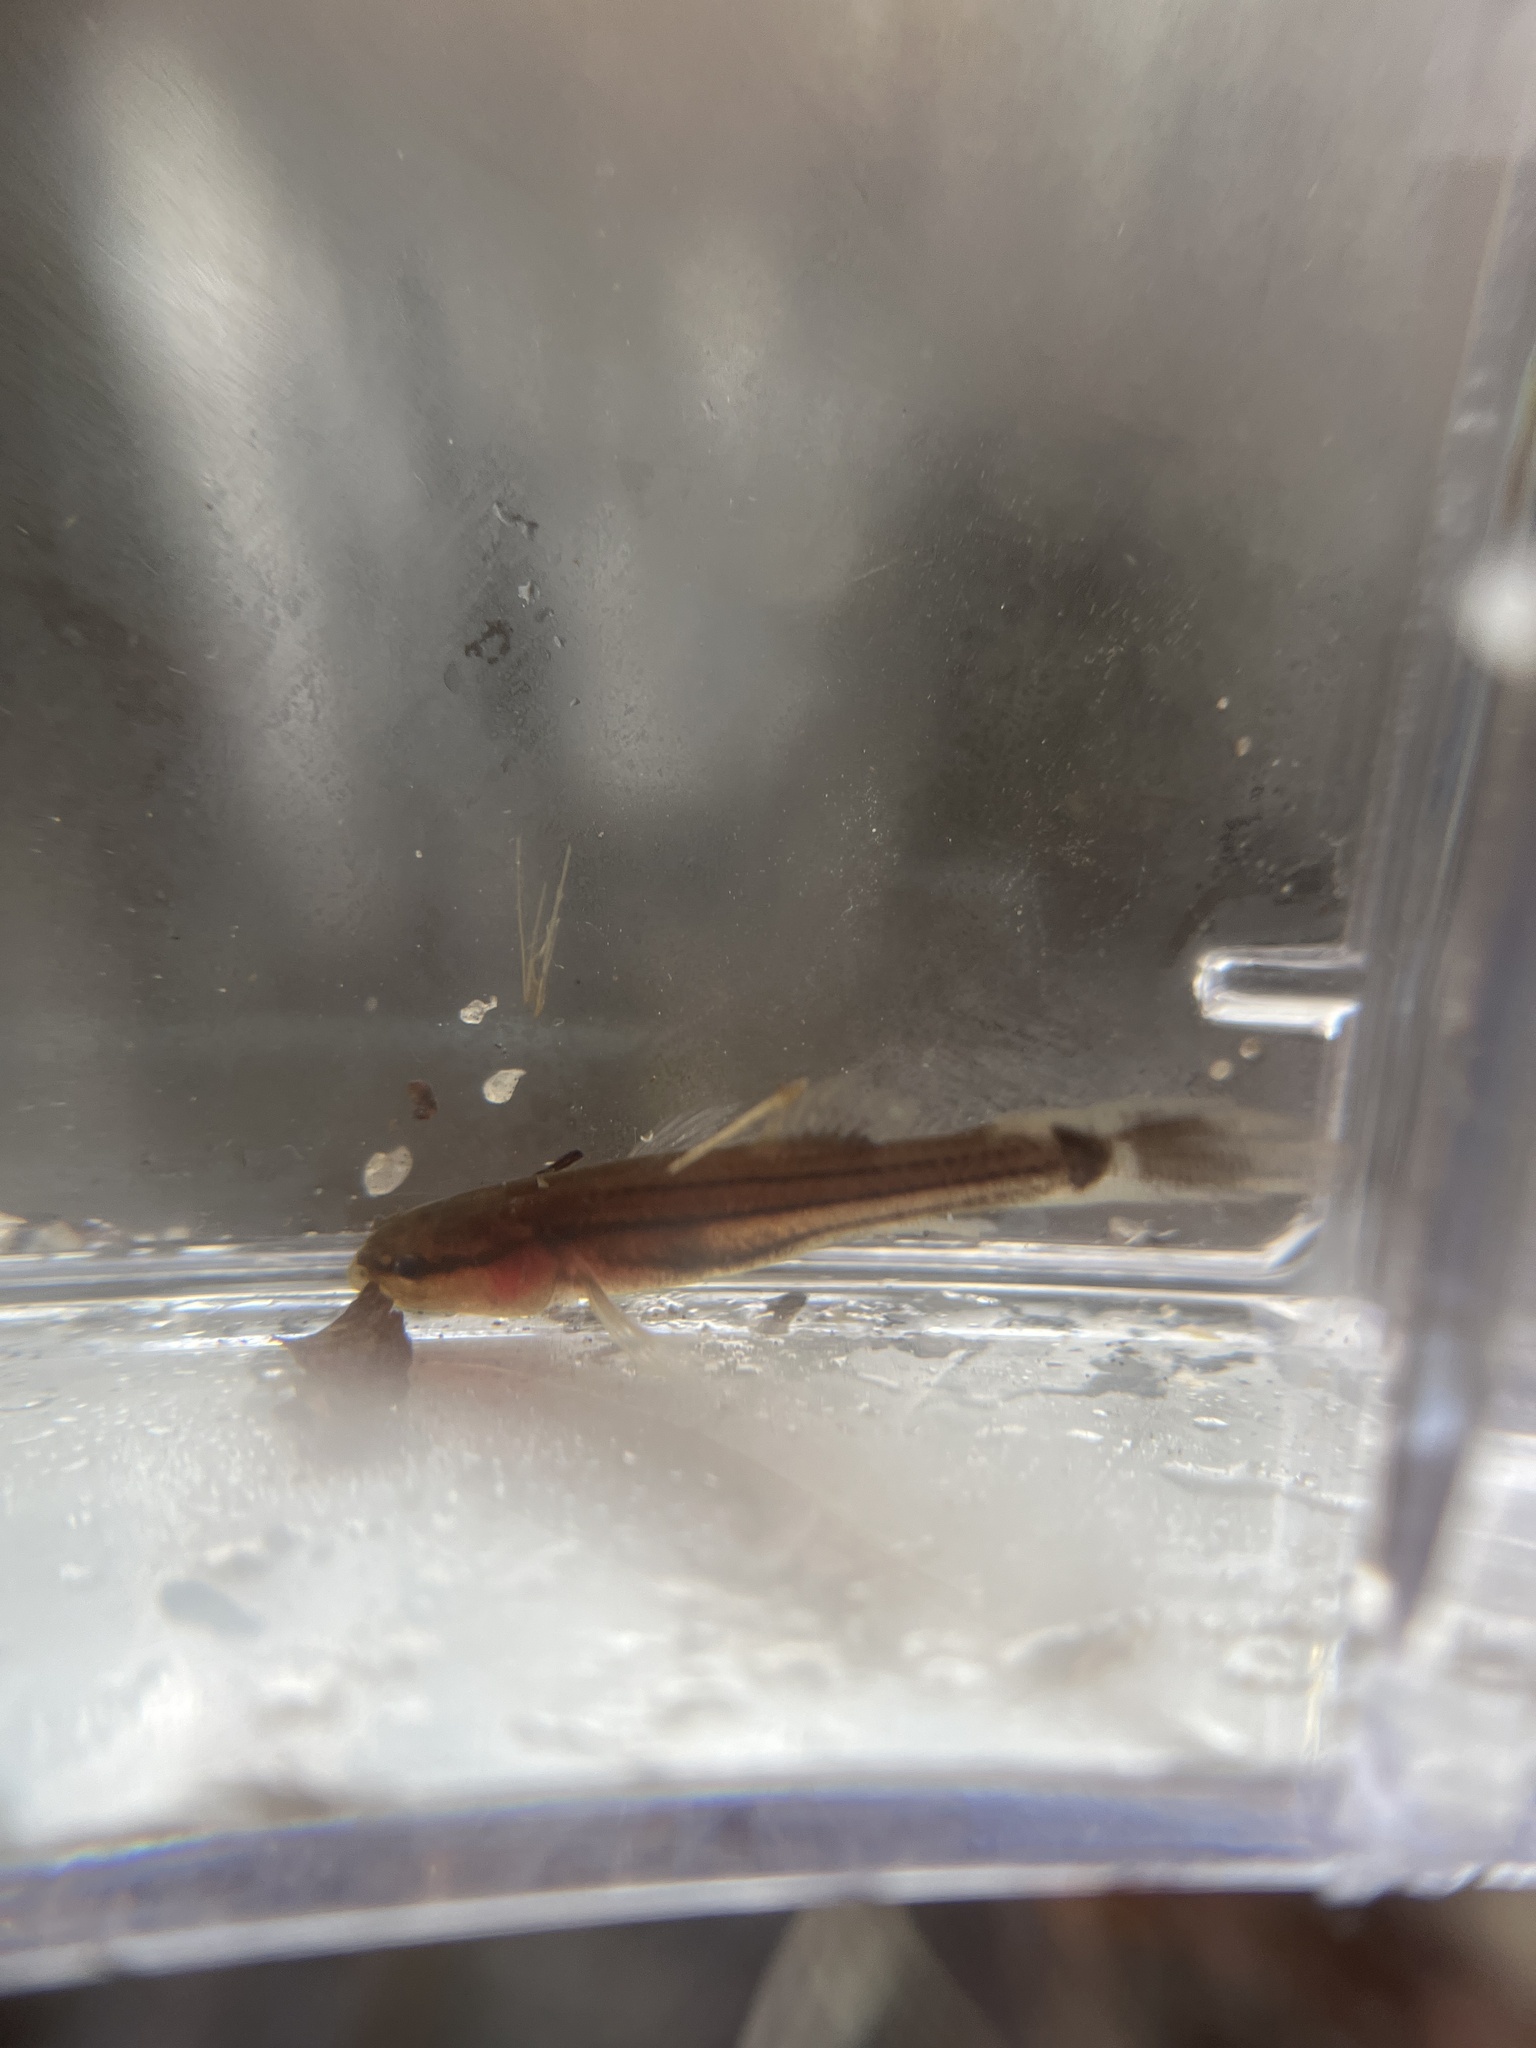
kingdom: Animalia
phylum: Chordata
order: Percopsiformes
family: Amblyopsidae
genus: Chologaster
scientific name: Chologaster cornuta
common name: Swampfish
